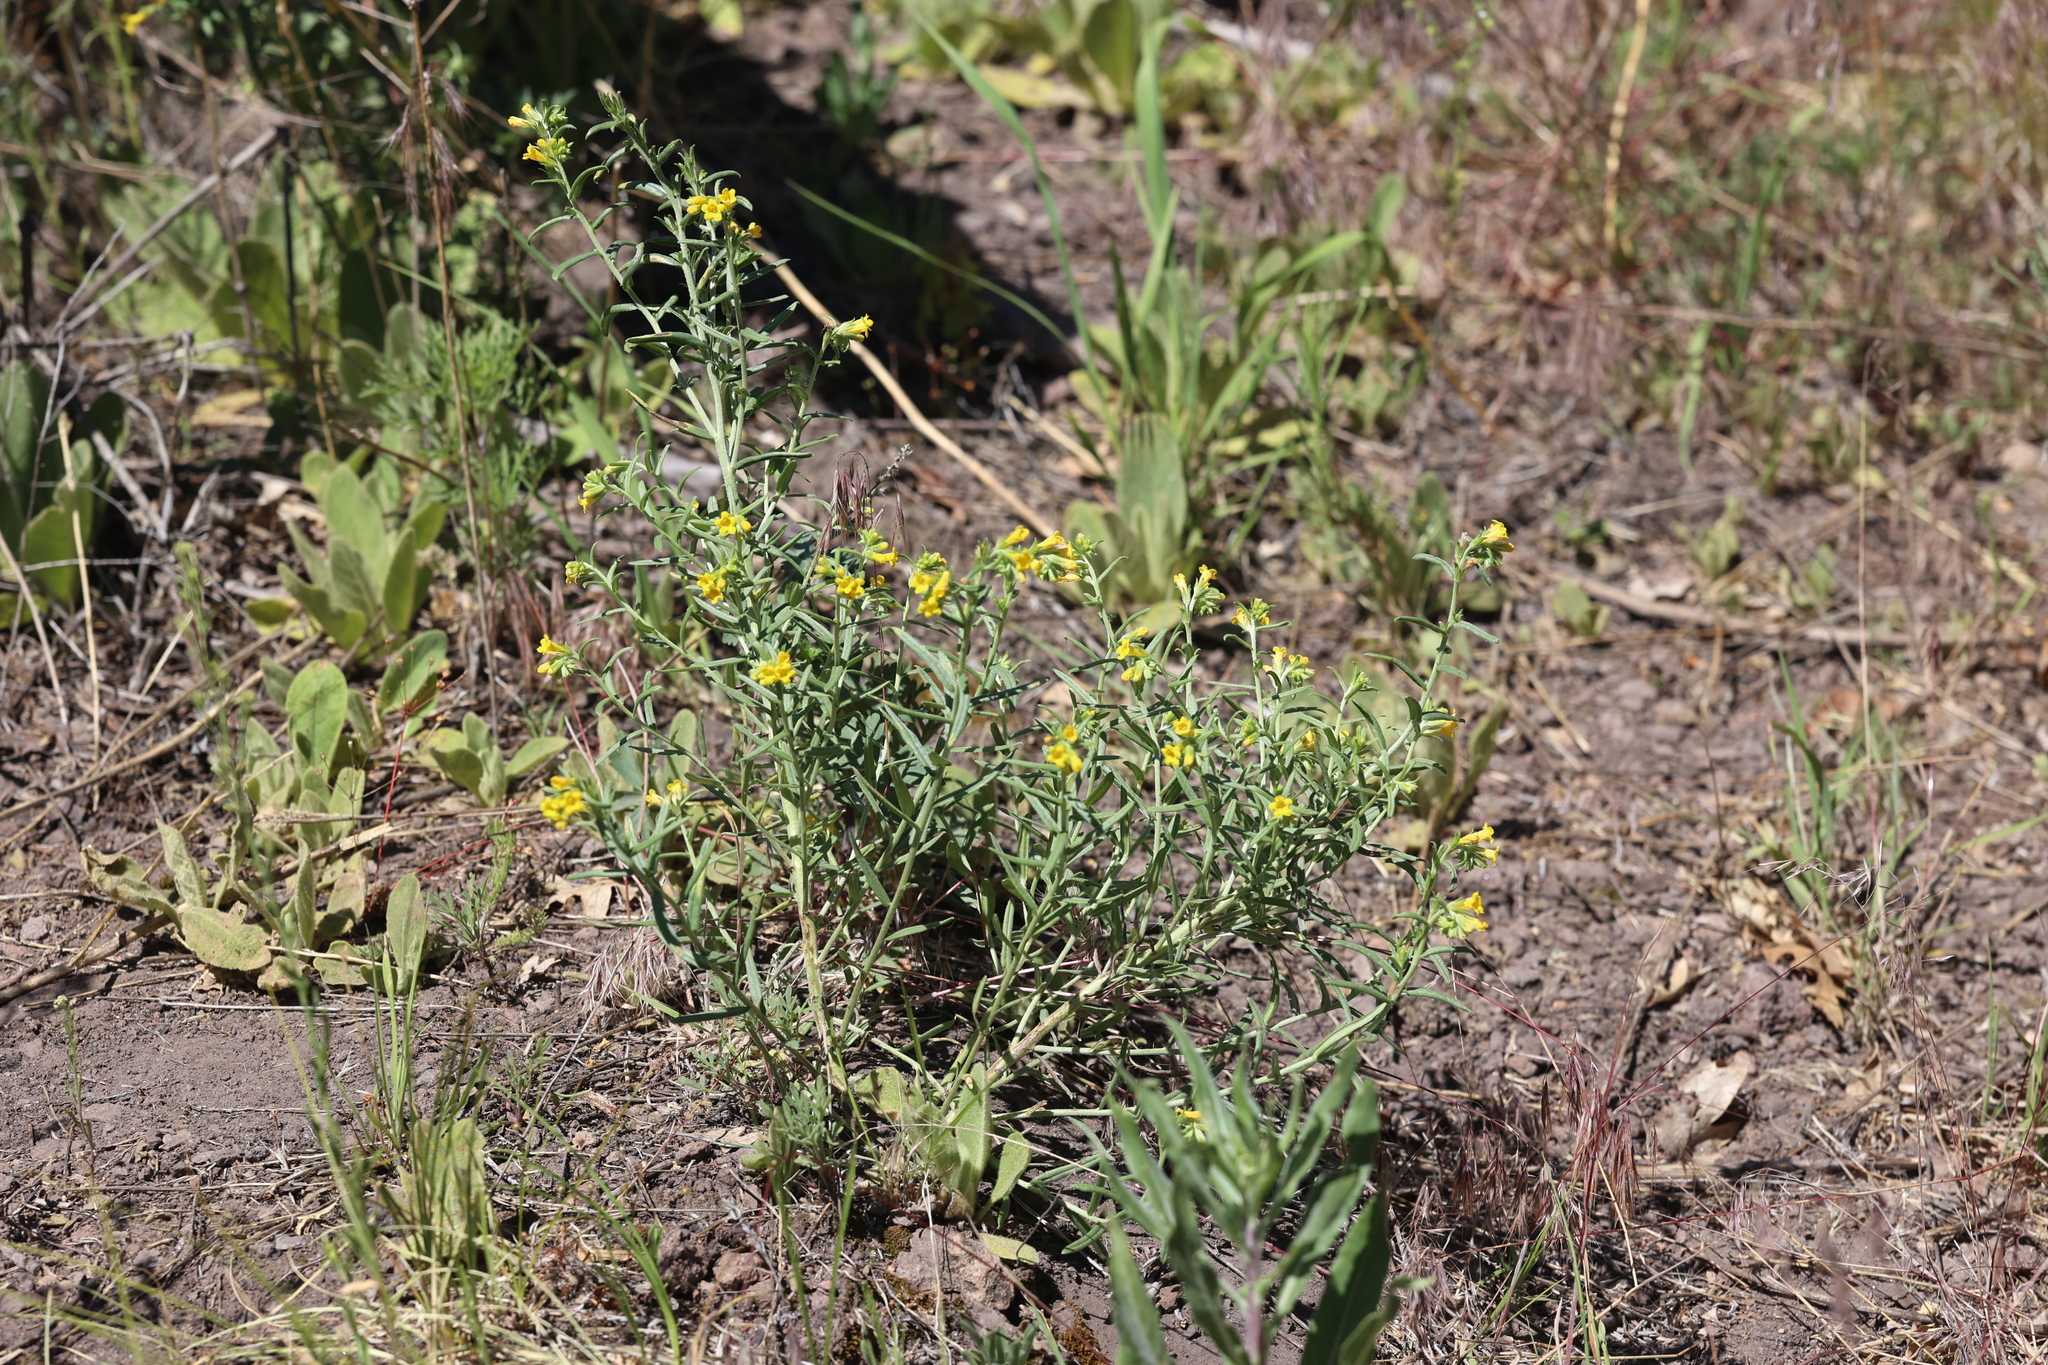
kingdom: Plantae
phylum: Tracheophyta
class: Magnoliopsida
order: Boraginales
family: Boraginaceae
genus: Lithospermum
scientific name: Lithospermum multiflorum
